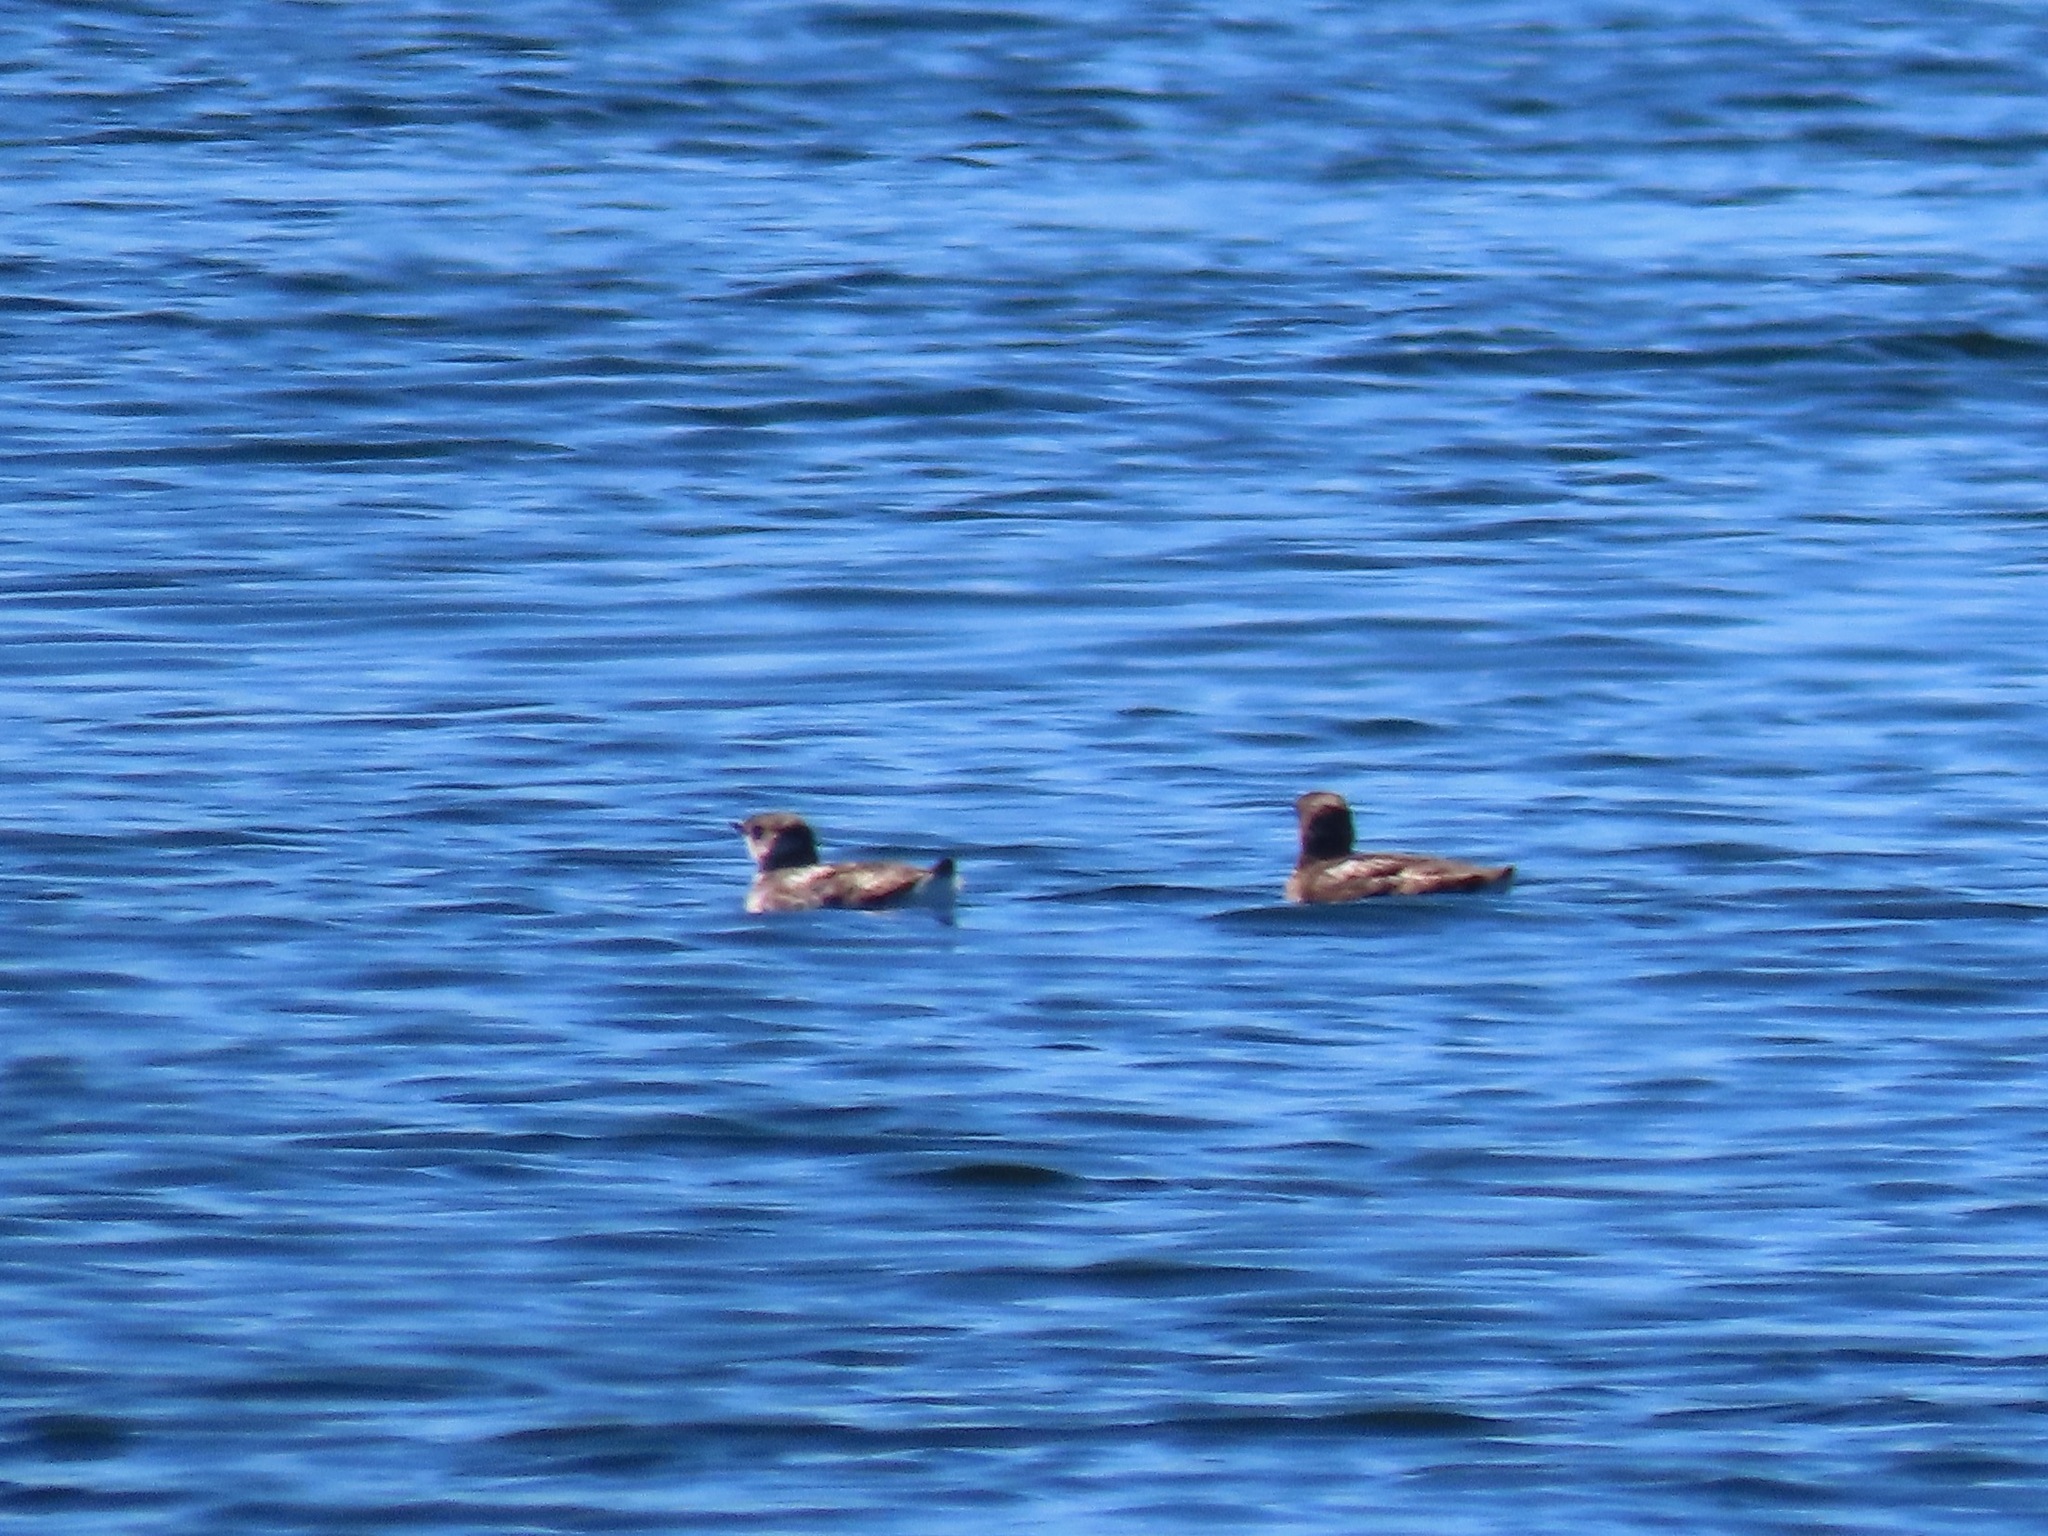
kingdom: Animalia
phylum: Chordata
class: Aves
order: Charadriiformes
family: Alcidae
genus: Brachyramphus
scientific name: Brachyramphus marmoratus
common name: Marbled murrelet
